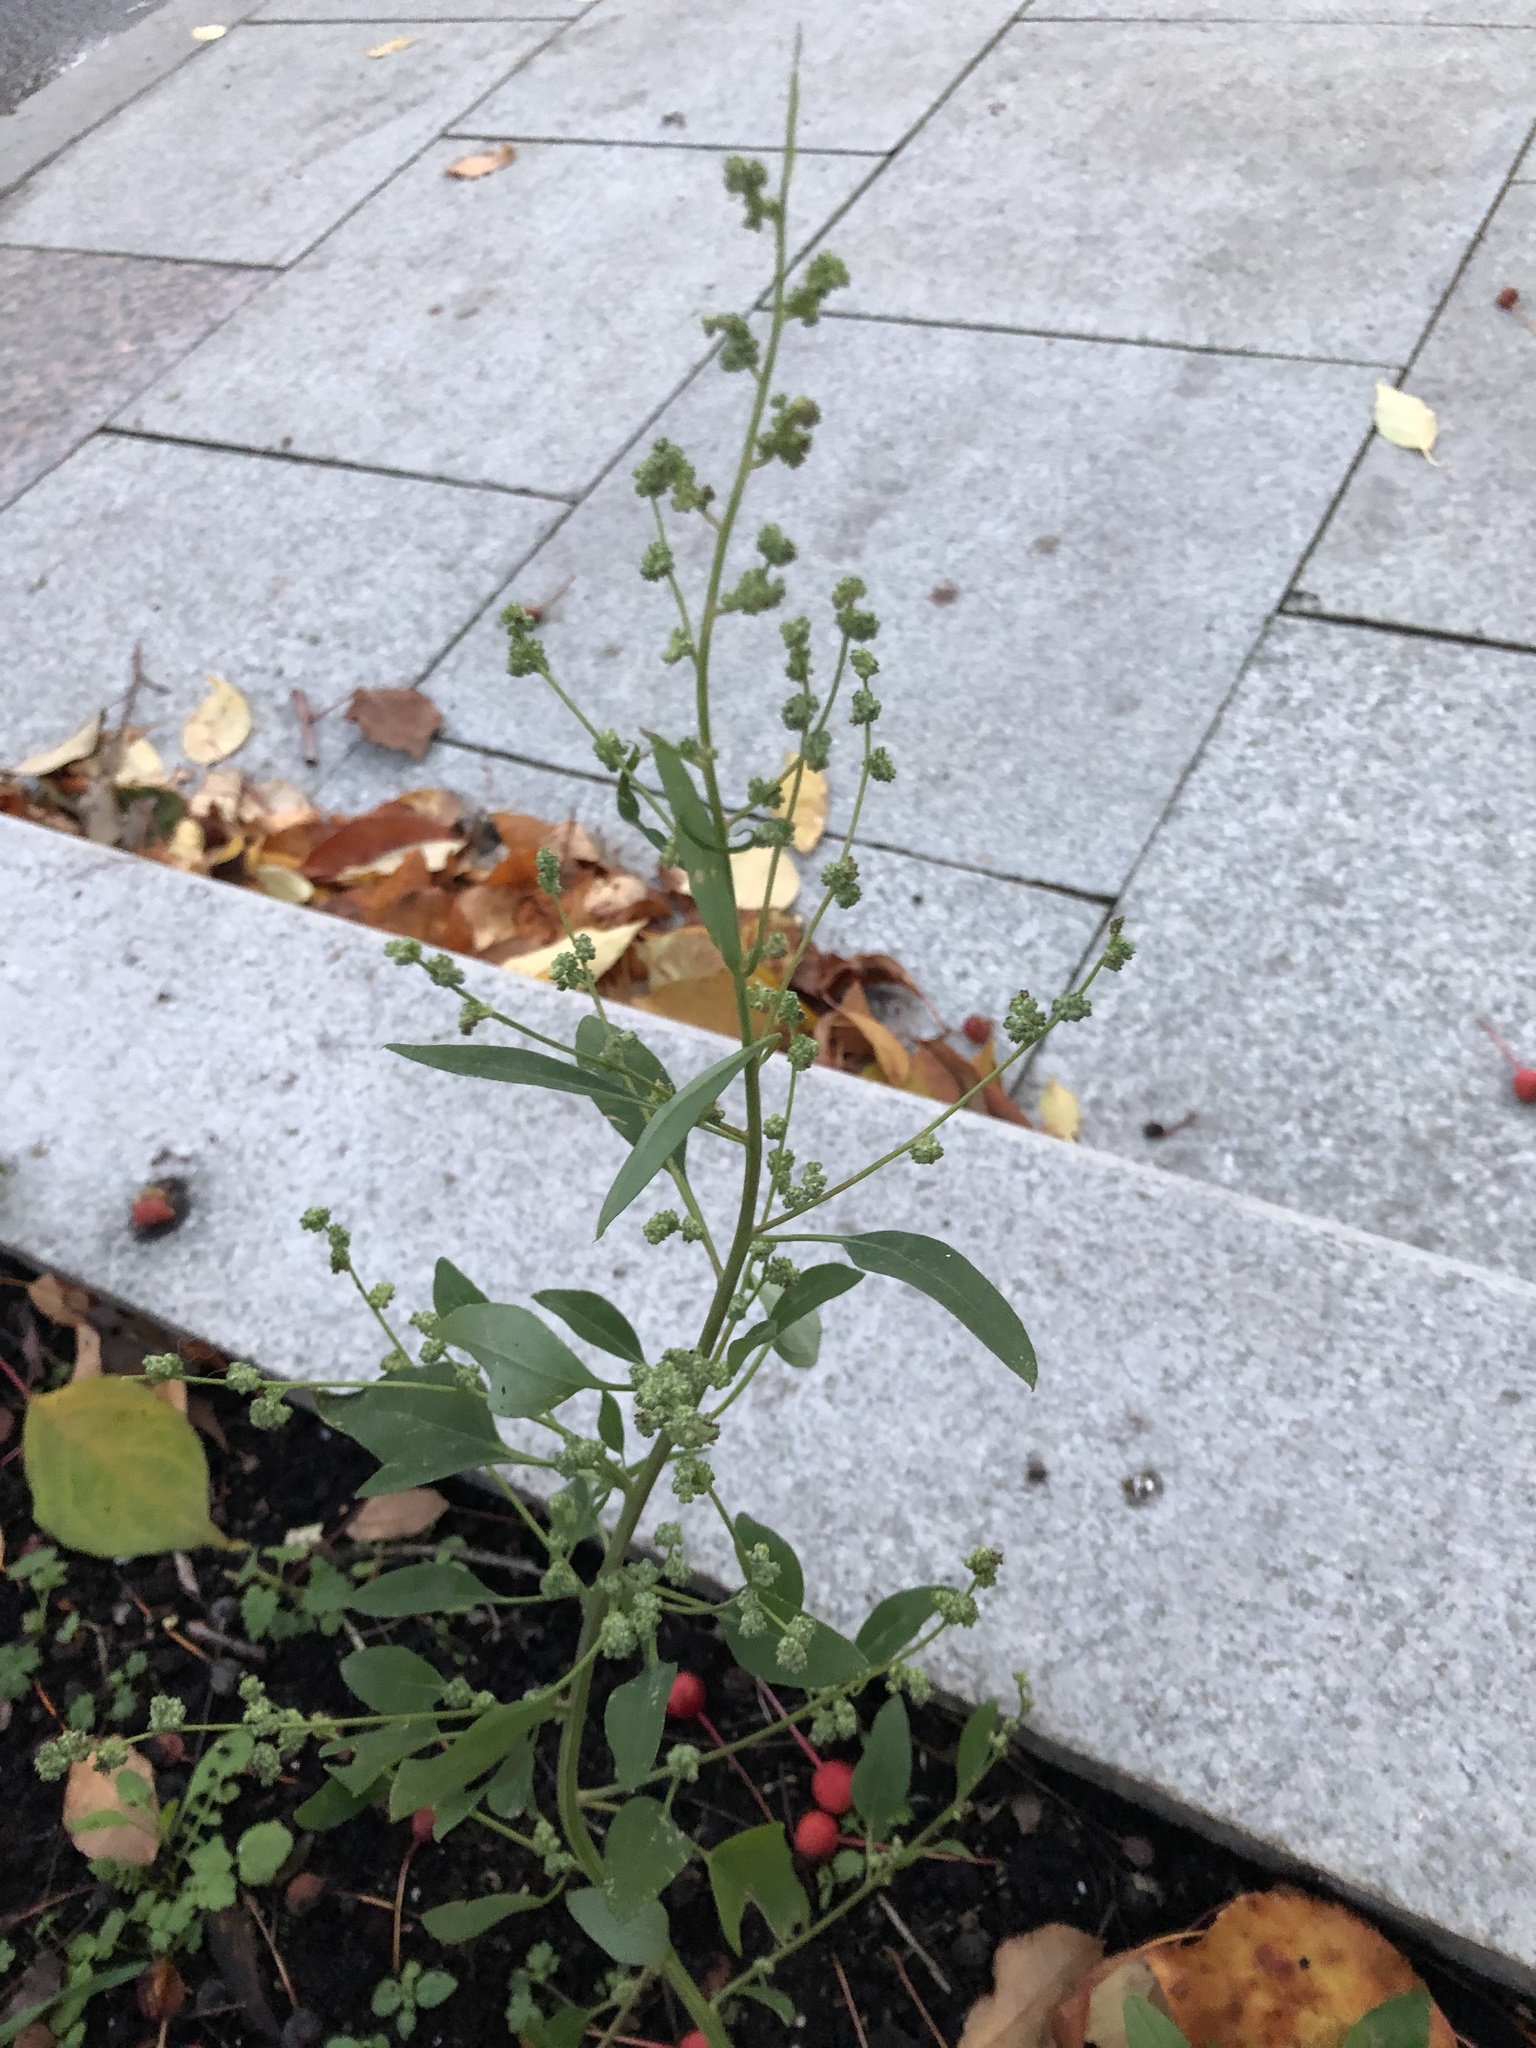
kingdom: Plantae
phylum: Tracheophyta
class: Magnoliopsida
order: Caryophyllales
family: Amaranthaceae
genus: Chenopodium
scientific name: Chenopodium album
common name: Fat-hen
